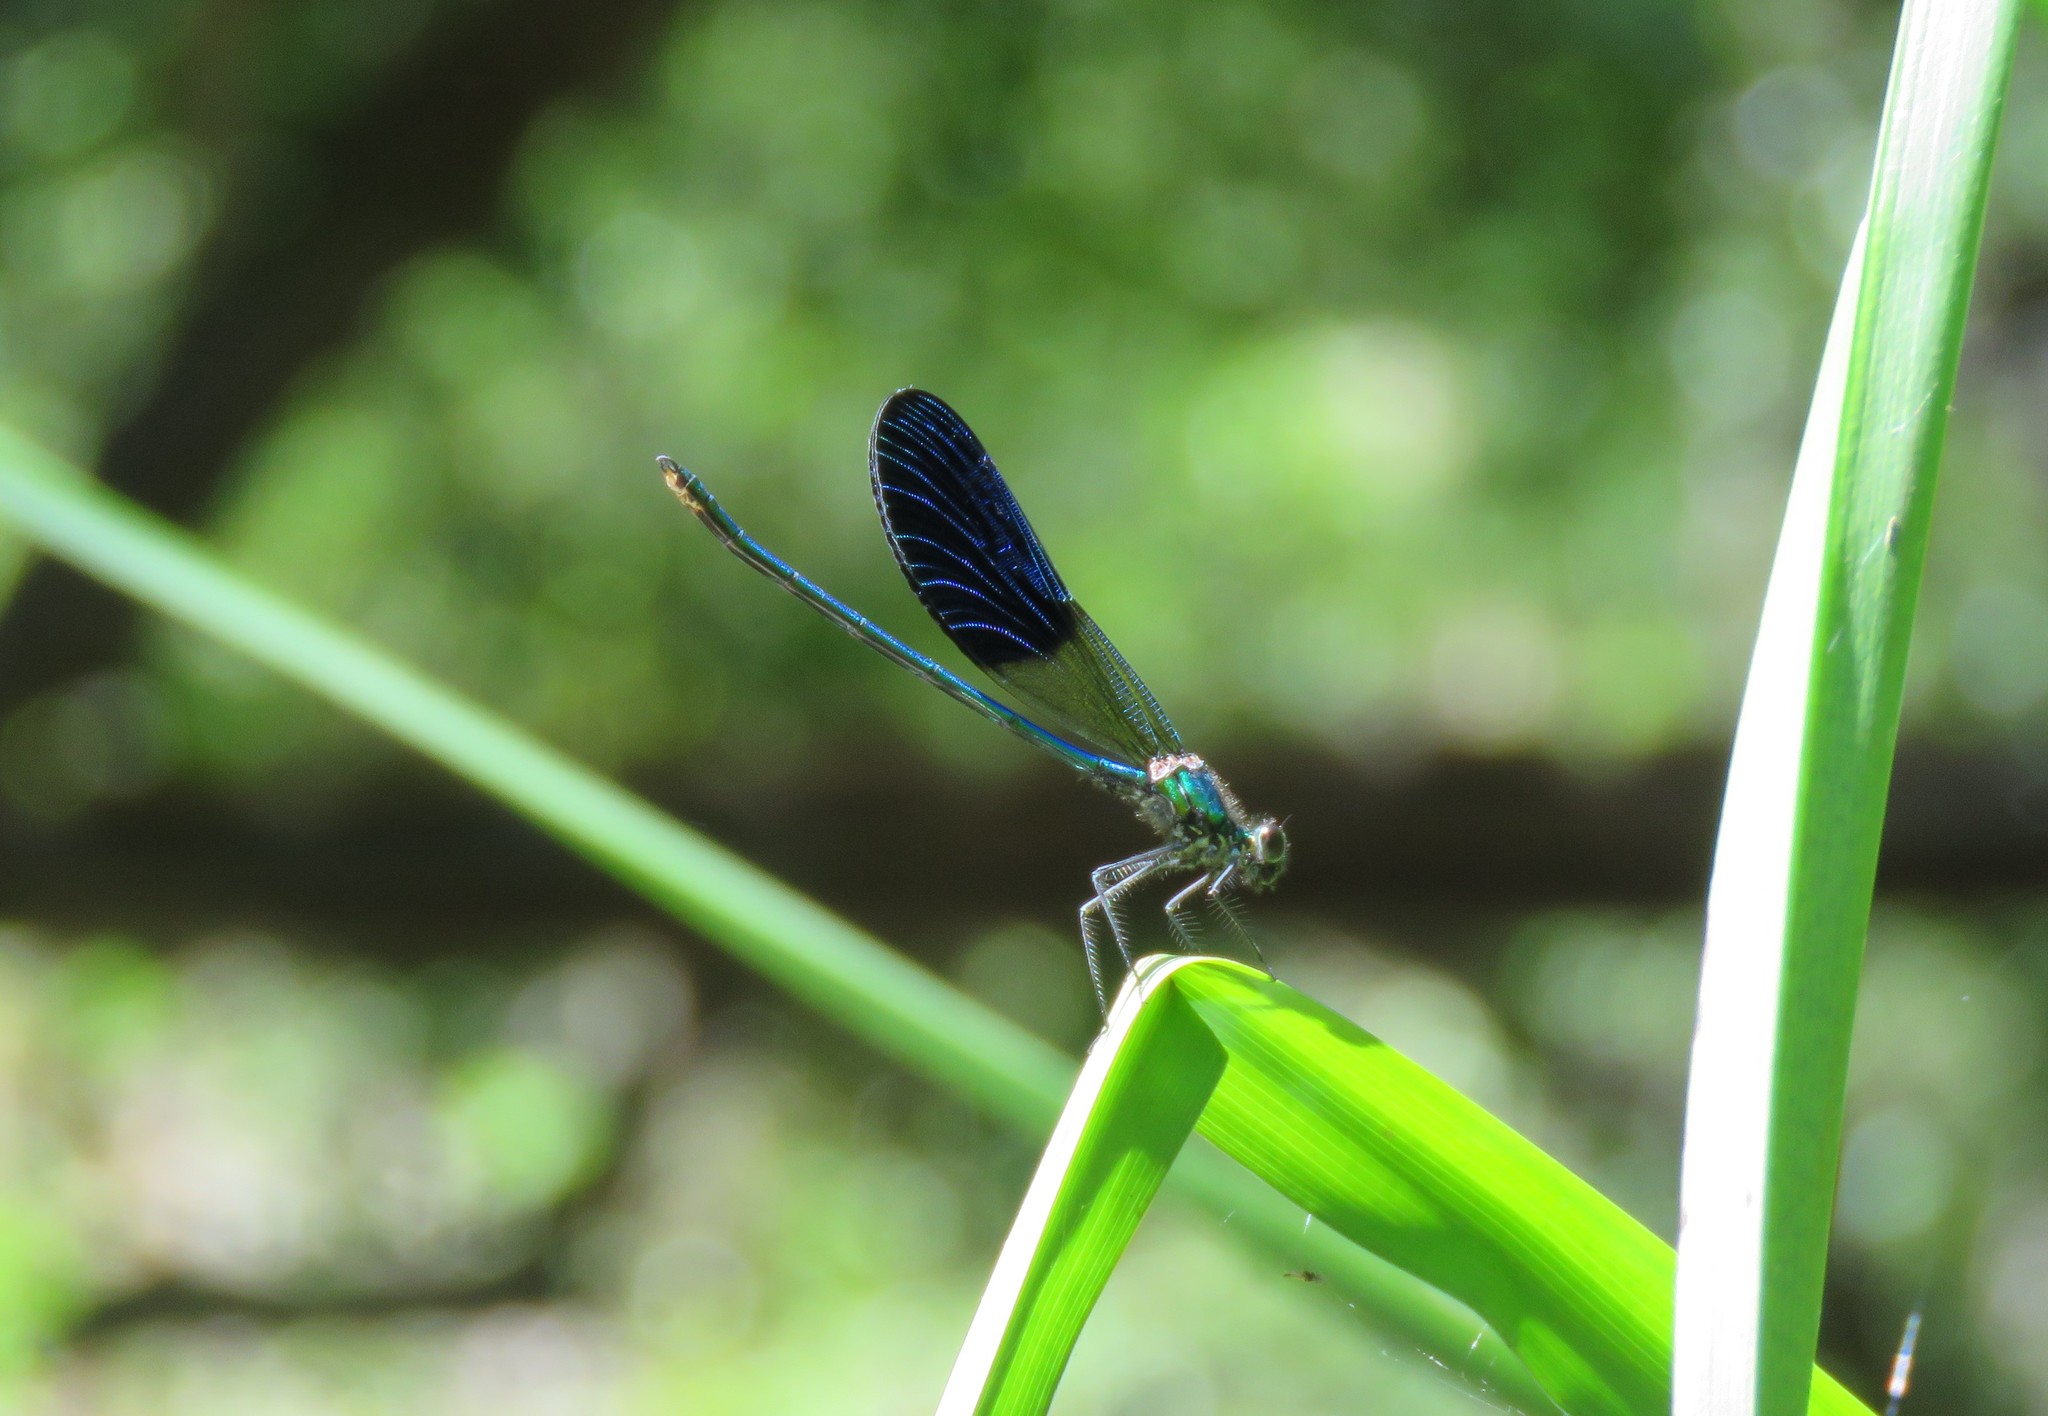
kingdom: Animalia
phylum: Arthropoda
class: Insecta
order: Odonata
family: Calopterygidae
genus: Calopteryx
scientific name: Calopteryx xanthostoma
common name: Western demoiselle
